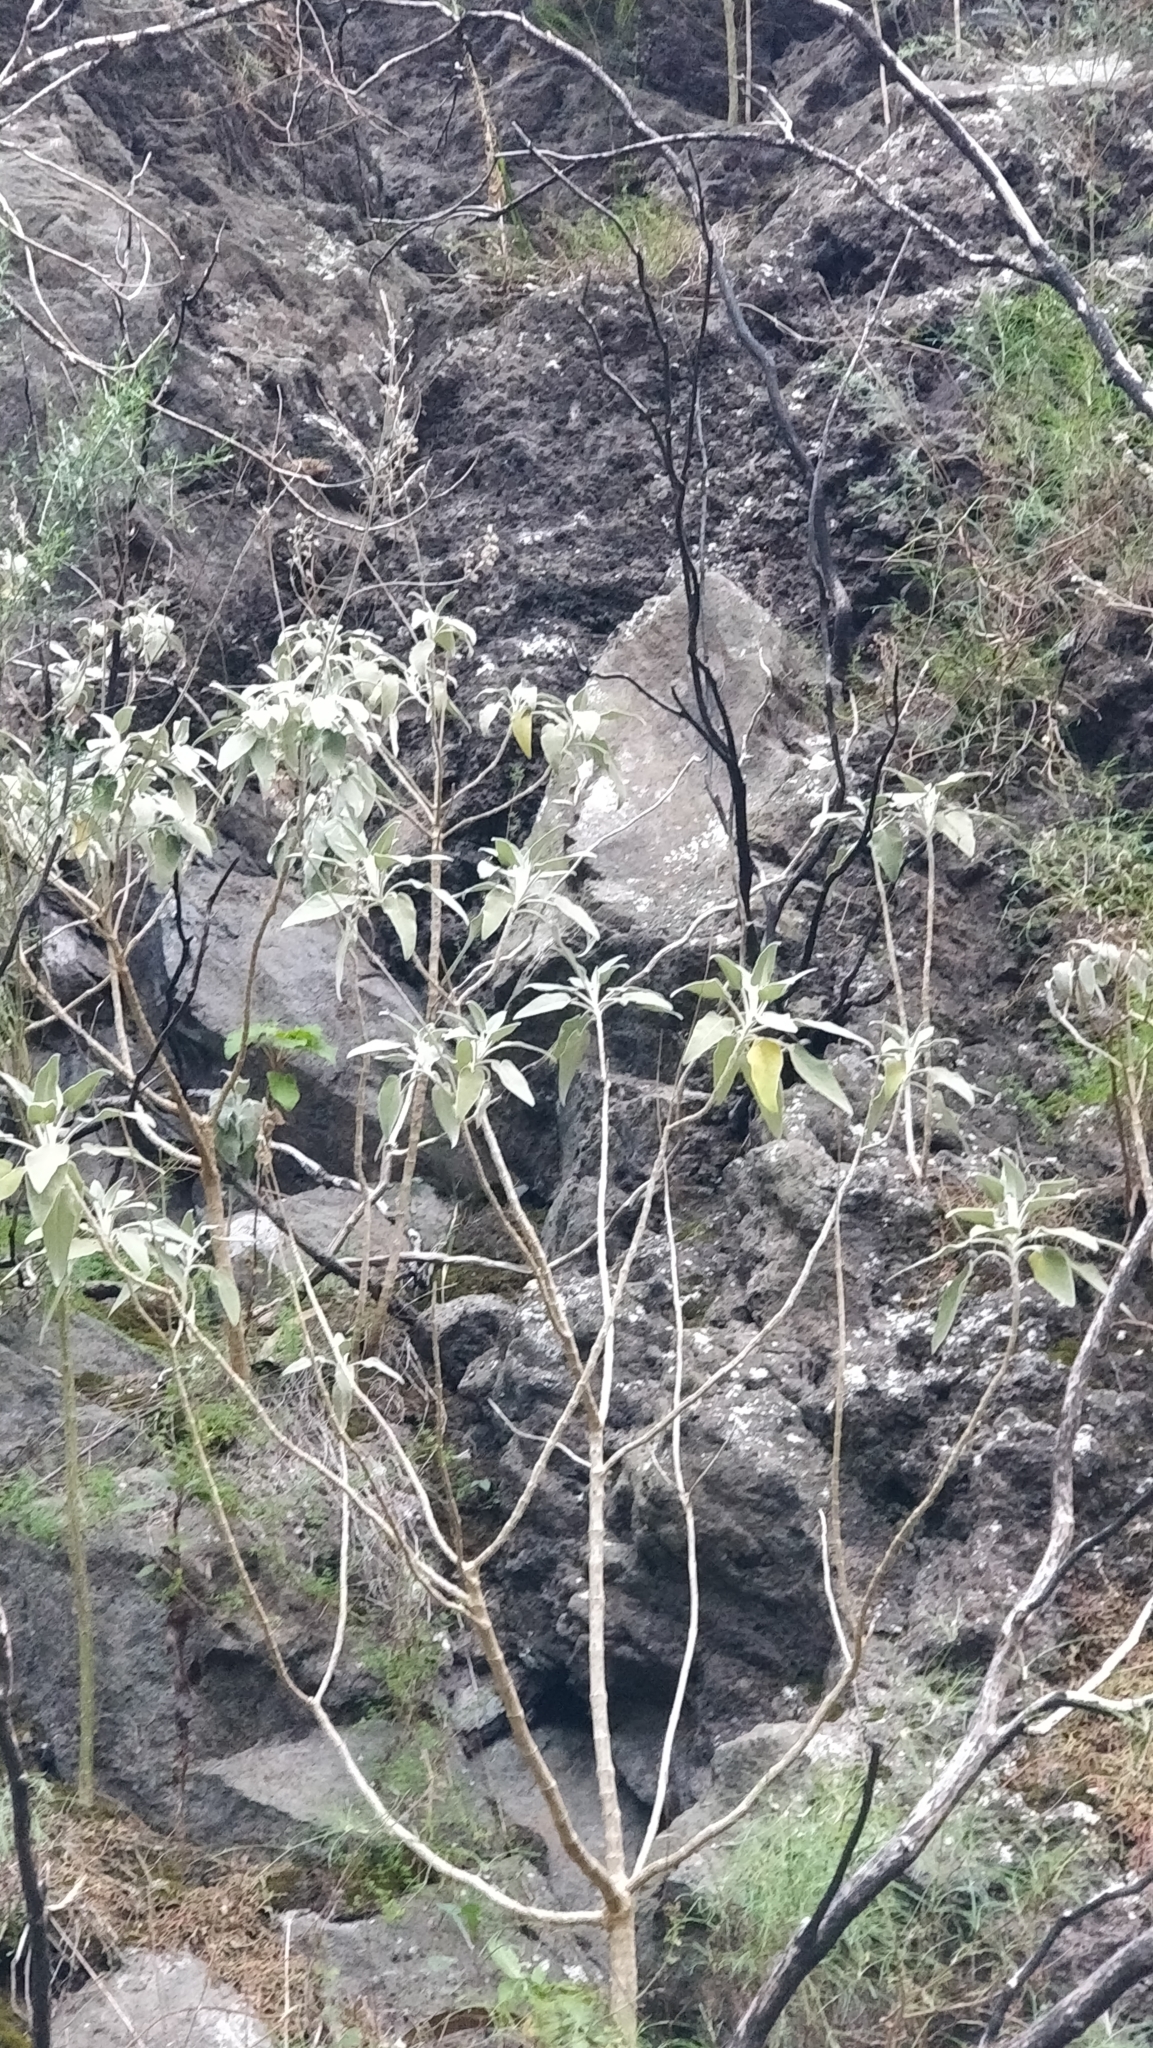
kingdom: Plantae
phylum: Tracheophyta
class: Magnoliopsida
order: Lamiales
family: Lamiaceae
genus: Sideritis
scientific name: Sideritis candicans
